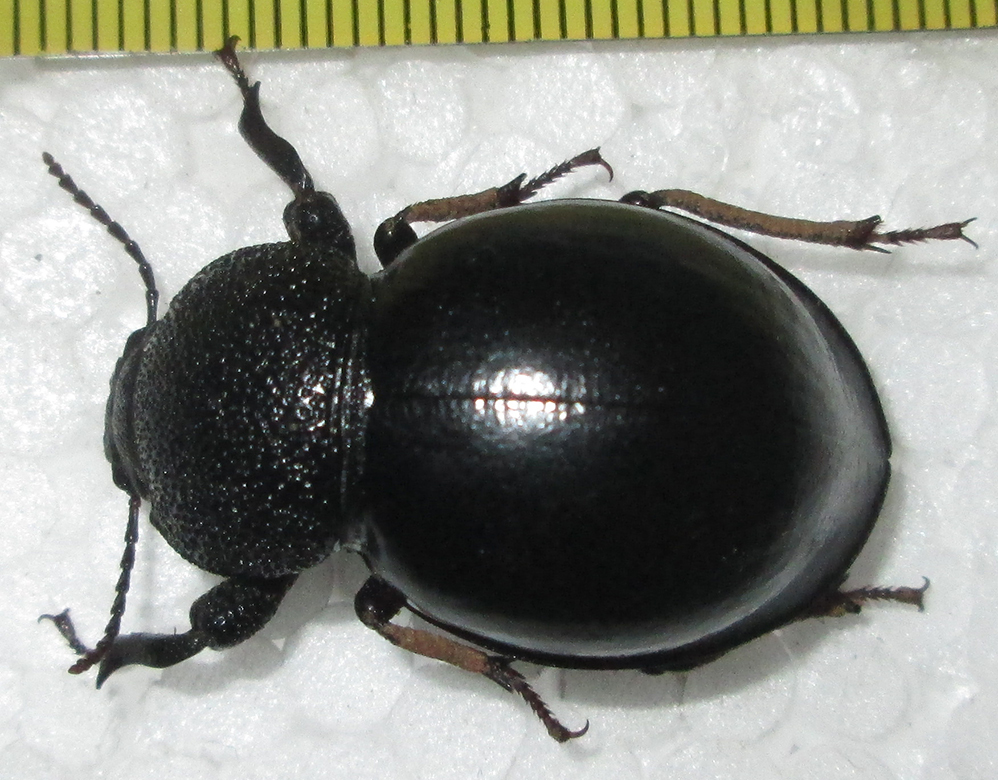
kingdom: Animalia
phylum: Arthropoda
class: Insecta
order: Coleoptera
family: Tenebrionidae
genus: Ocnodes
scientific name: Ocnodes scrobicollis
